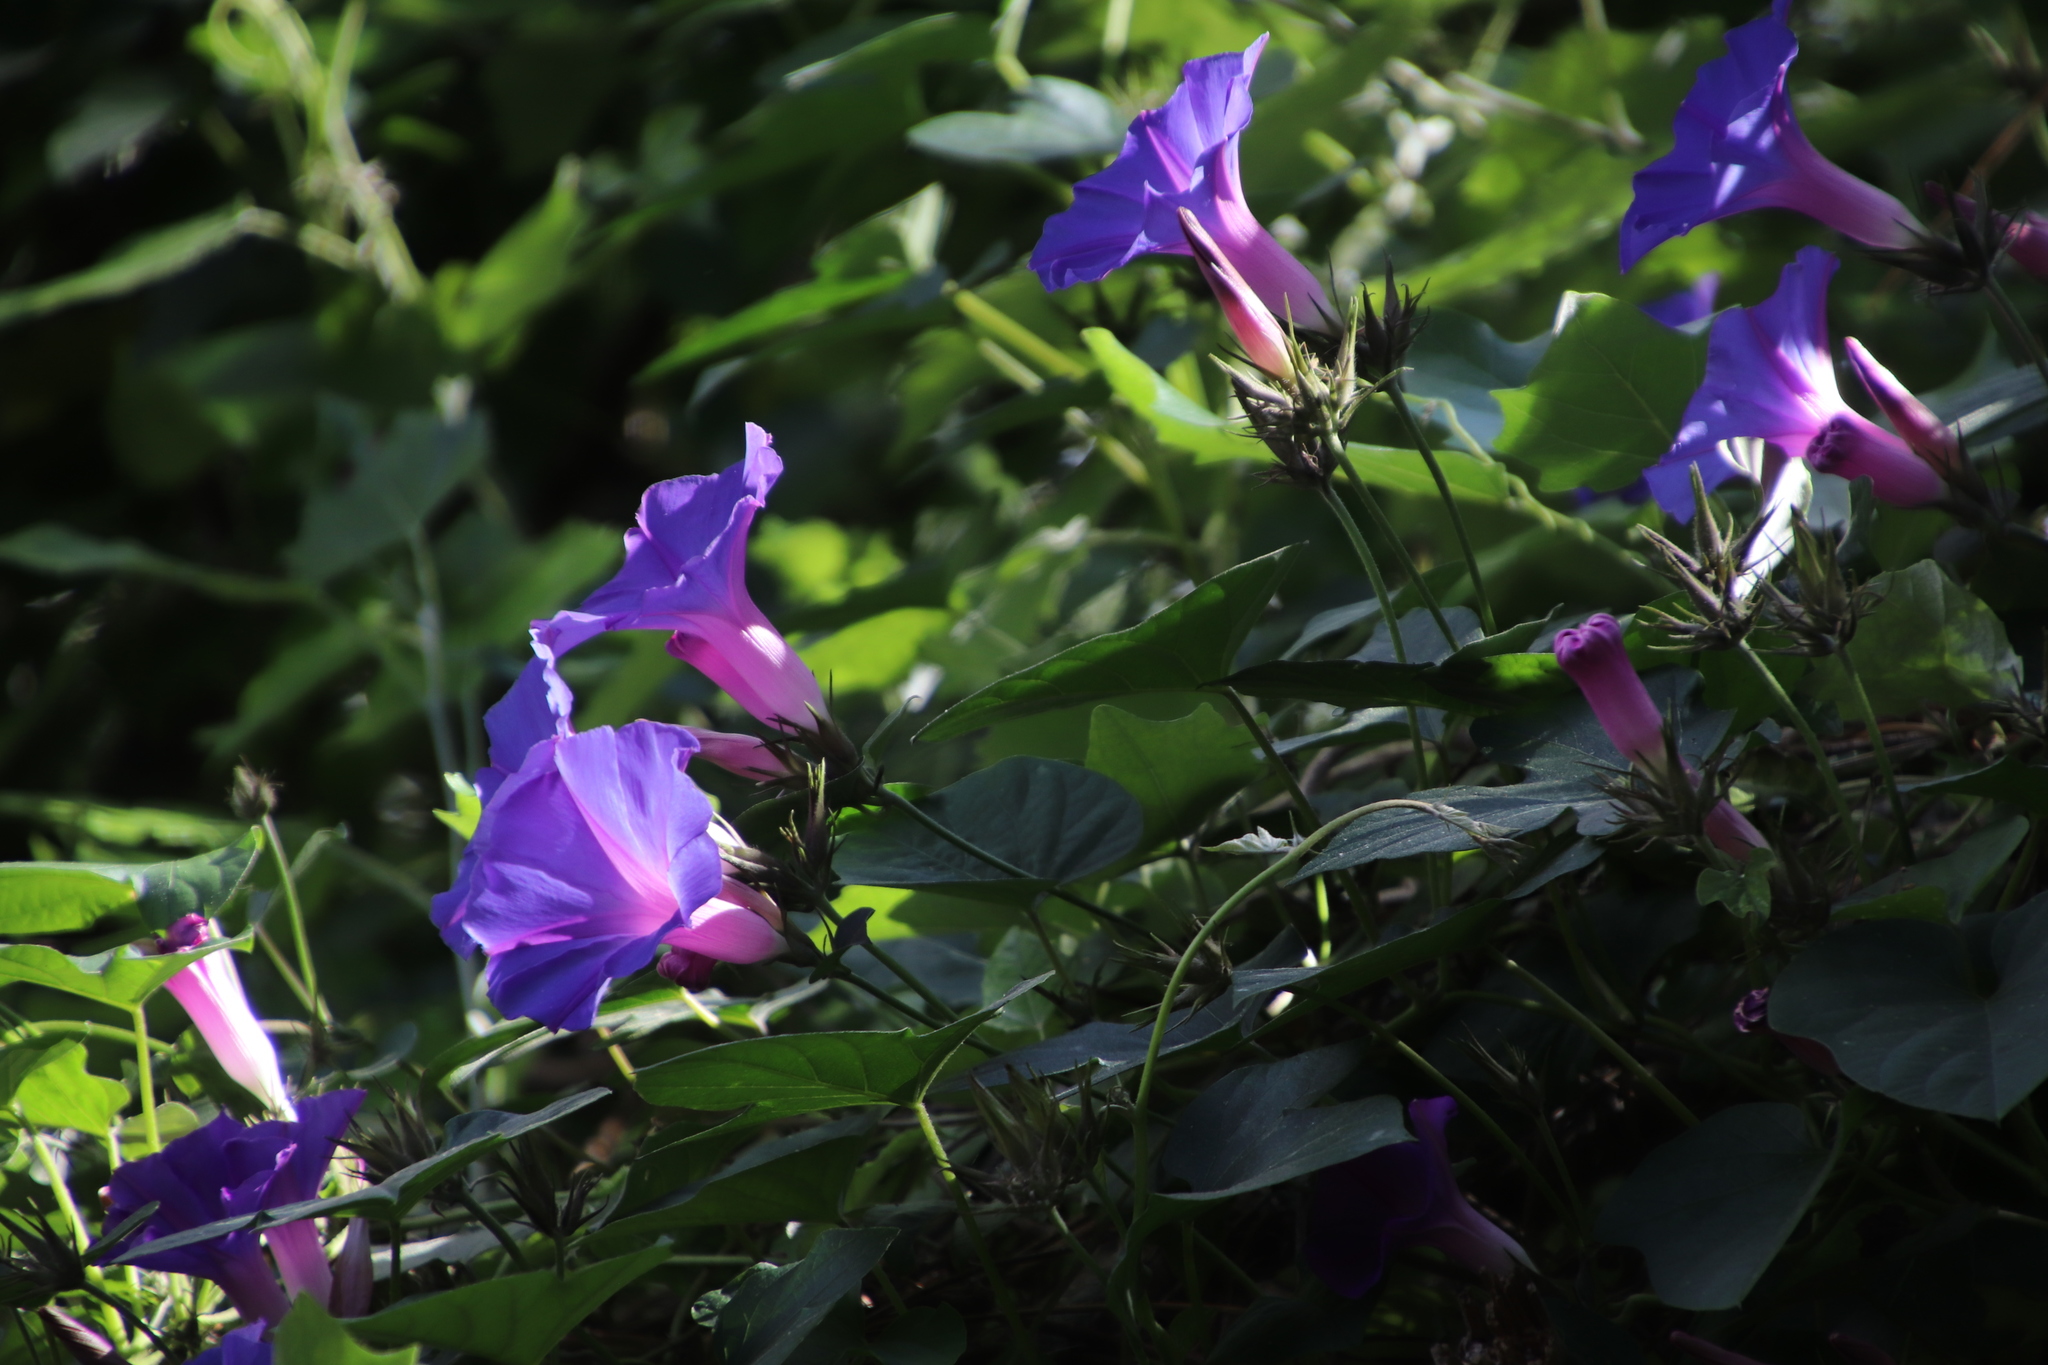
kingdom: Plantae
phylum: Tracheophyta
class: Magnoliopsida
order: Solanales
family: Convolvulaceae
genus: Ipomoea
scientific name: Ipomoea indica
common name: Blue dawnflower
